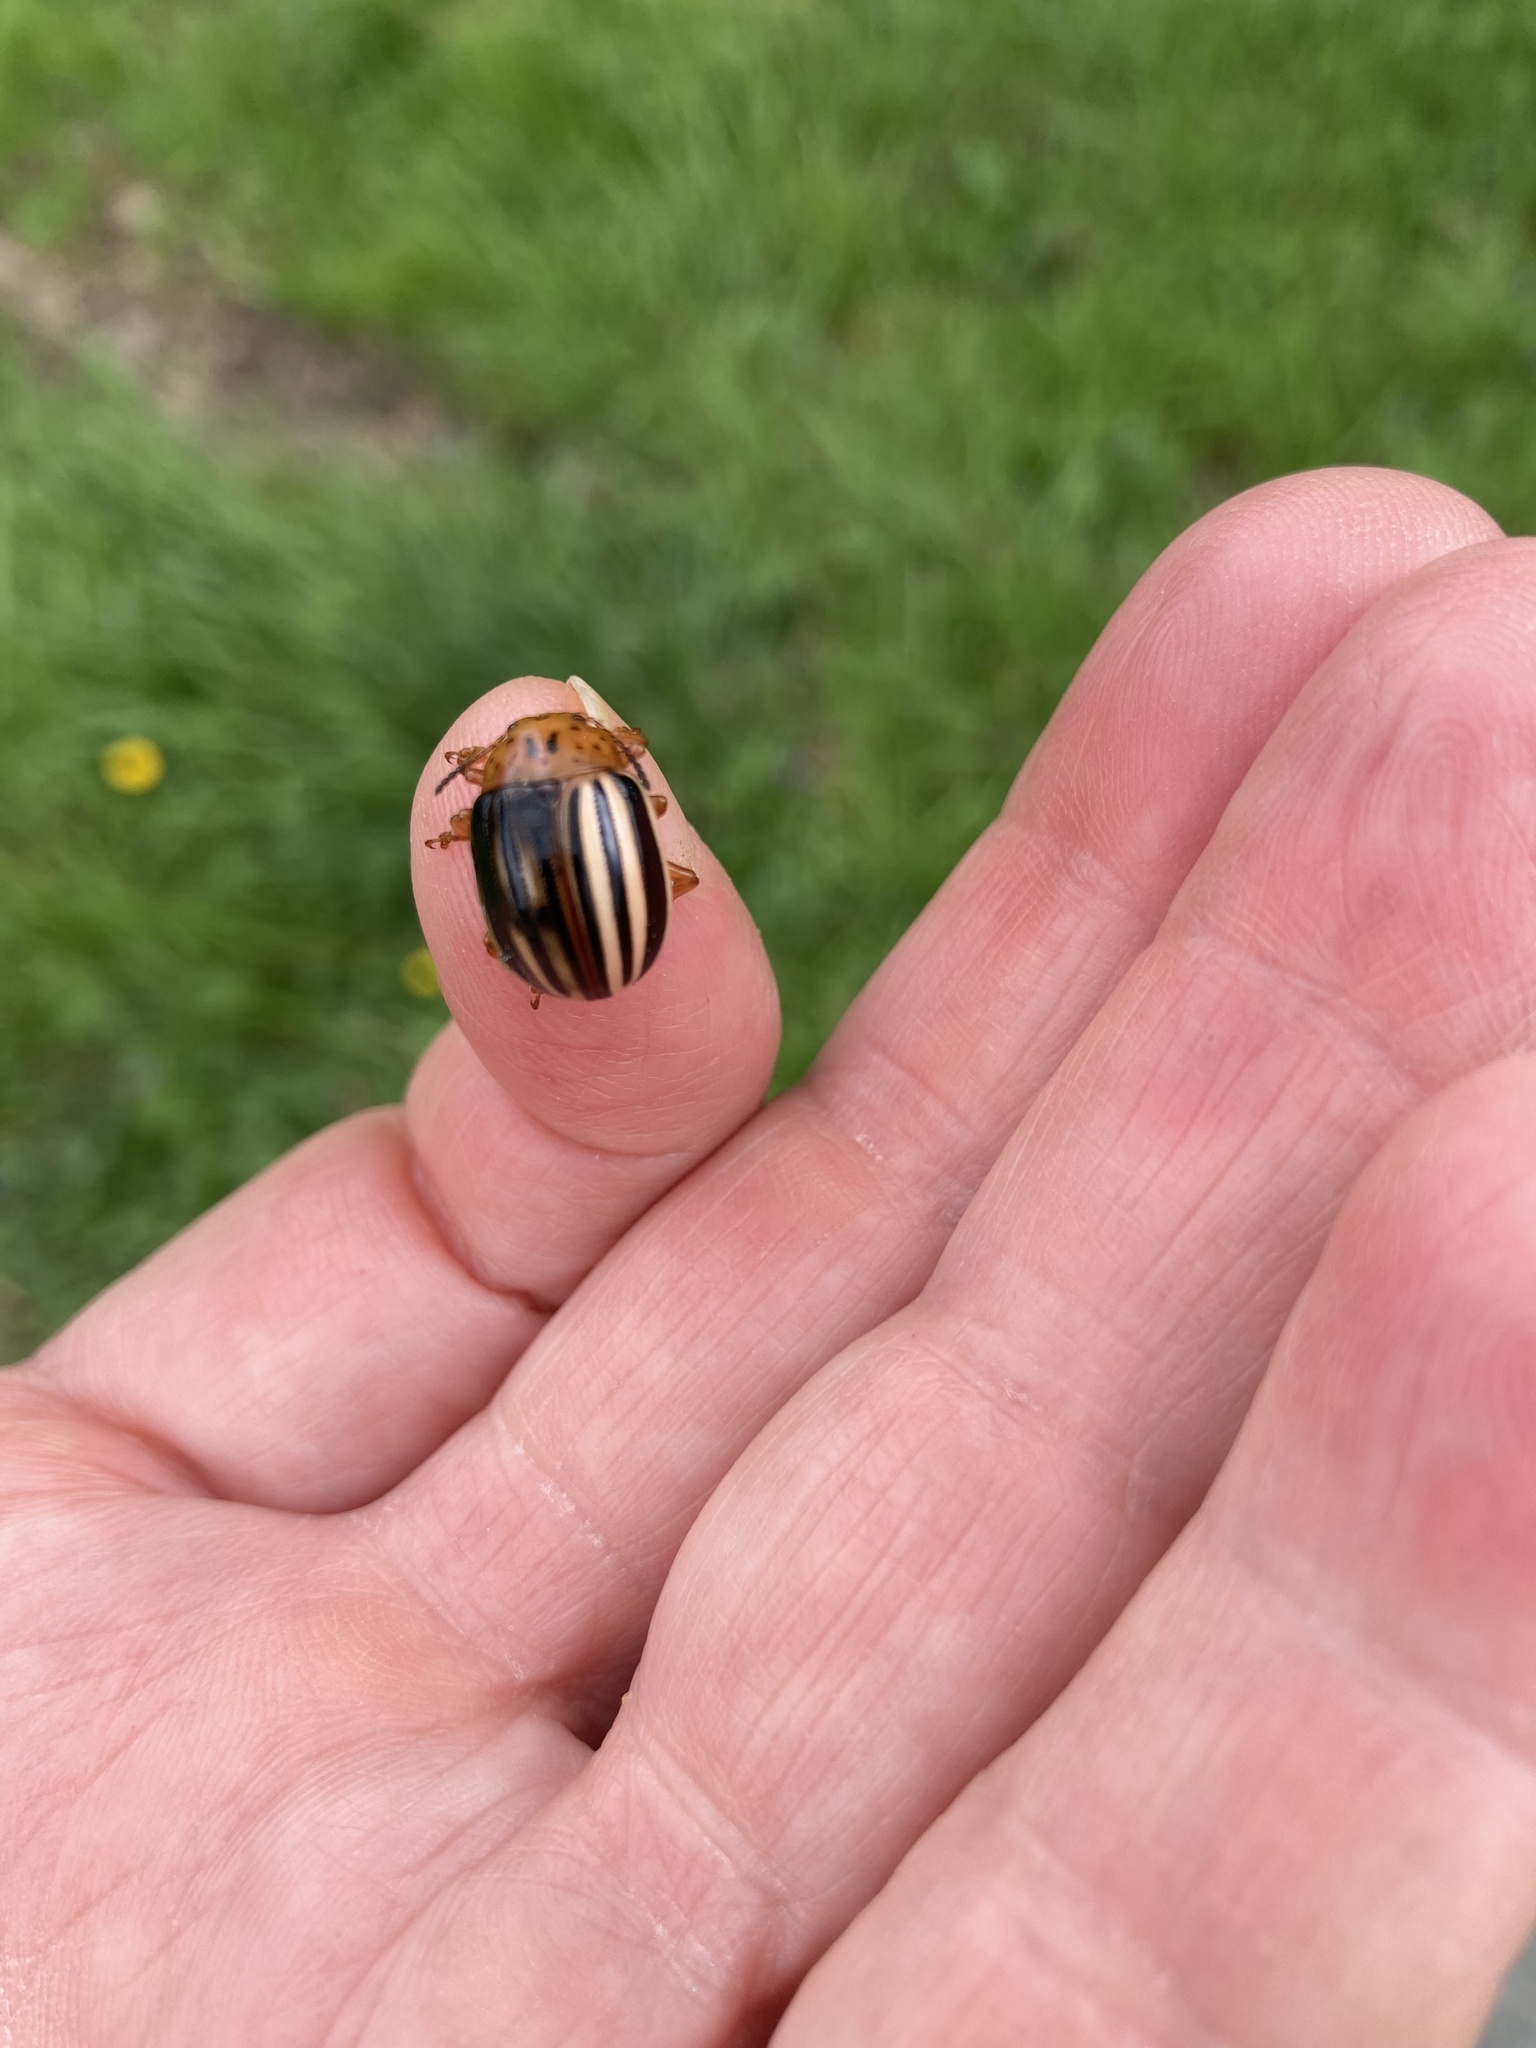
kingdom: Animalia
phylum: Arthropoda
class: Insecta
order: Coleoptera
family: Chrysomelidae
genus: Leptinotarsa
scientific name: Leptinotarsa juncta
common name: False potato beetle
